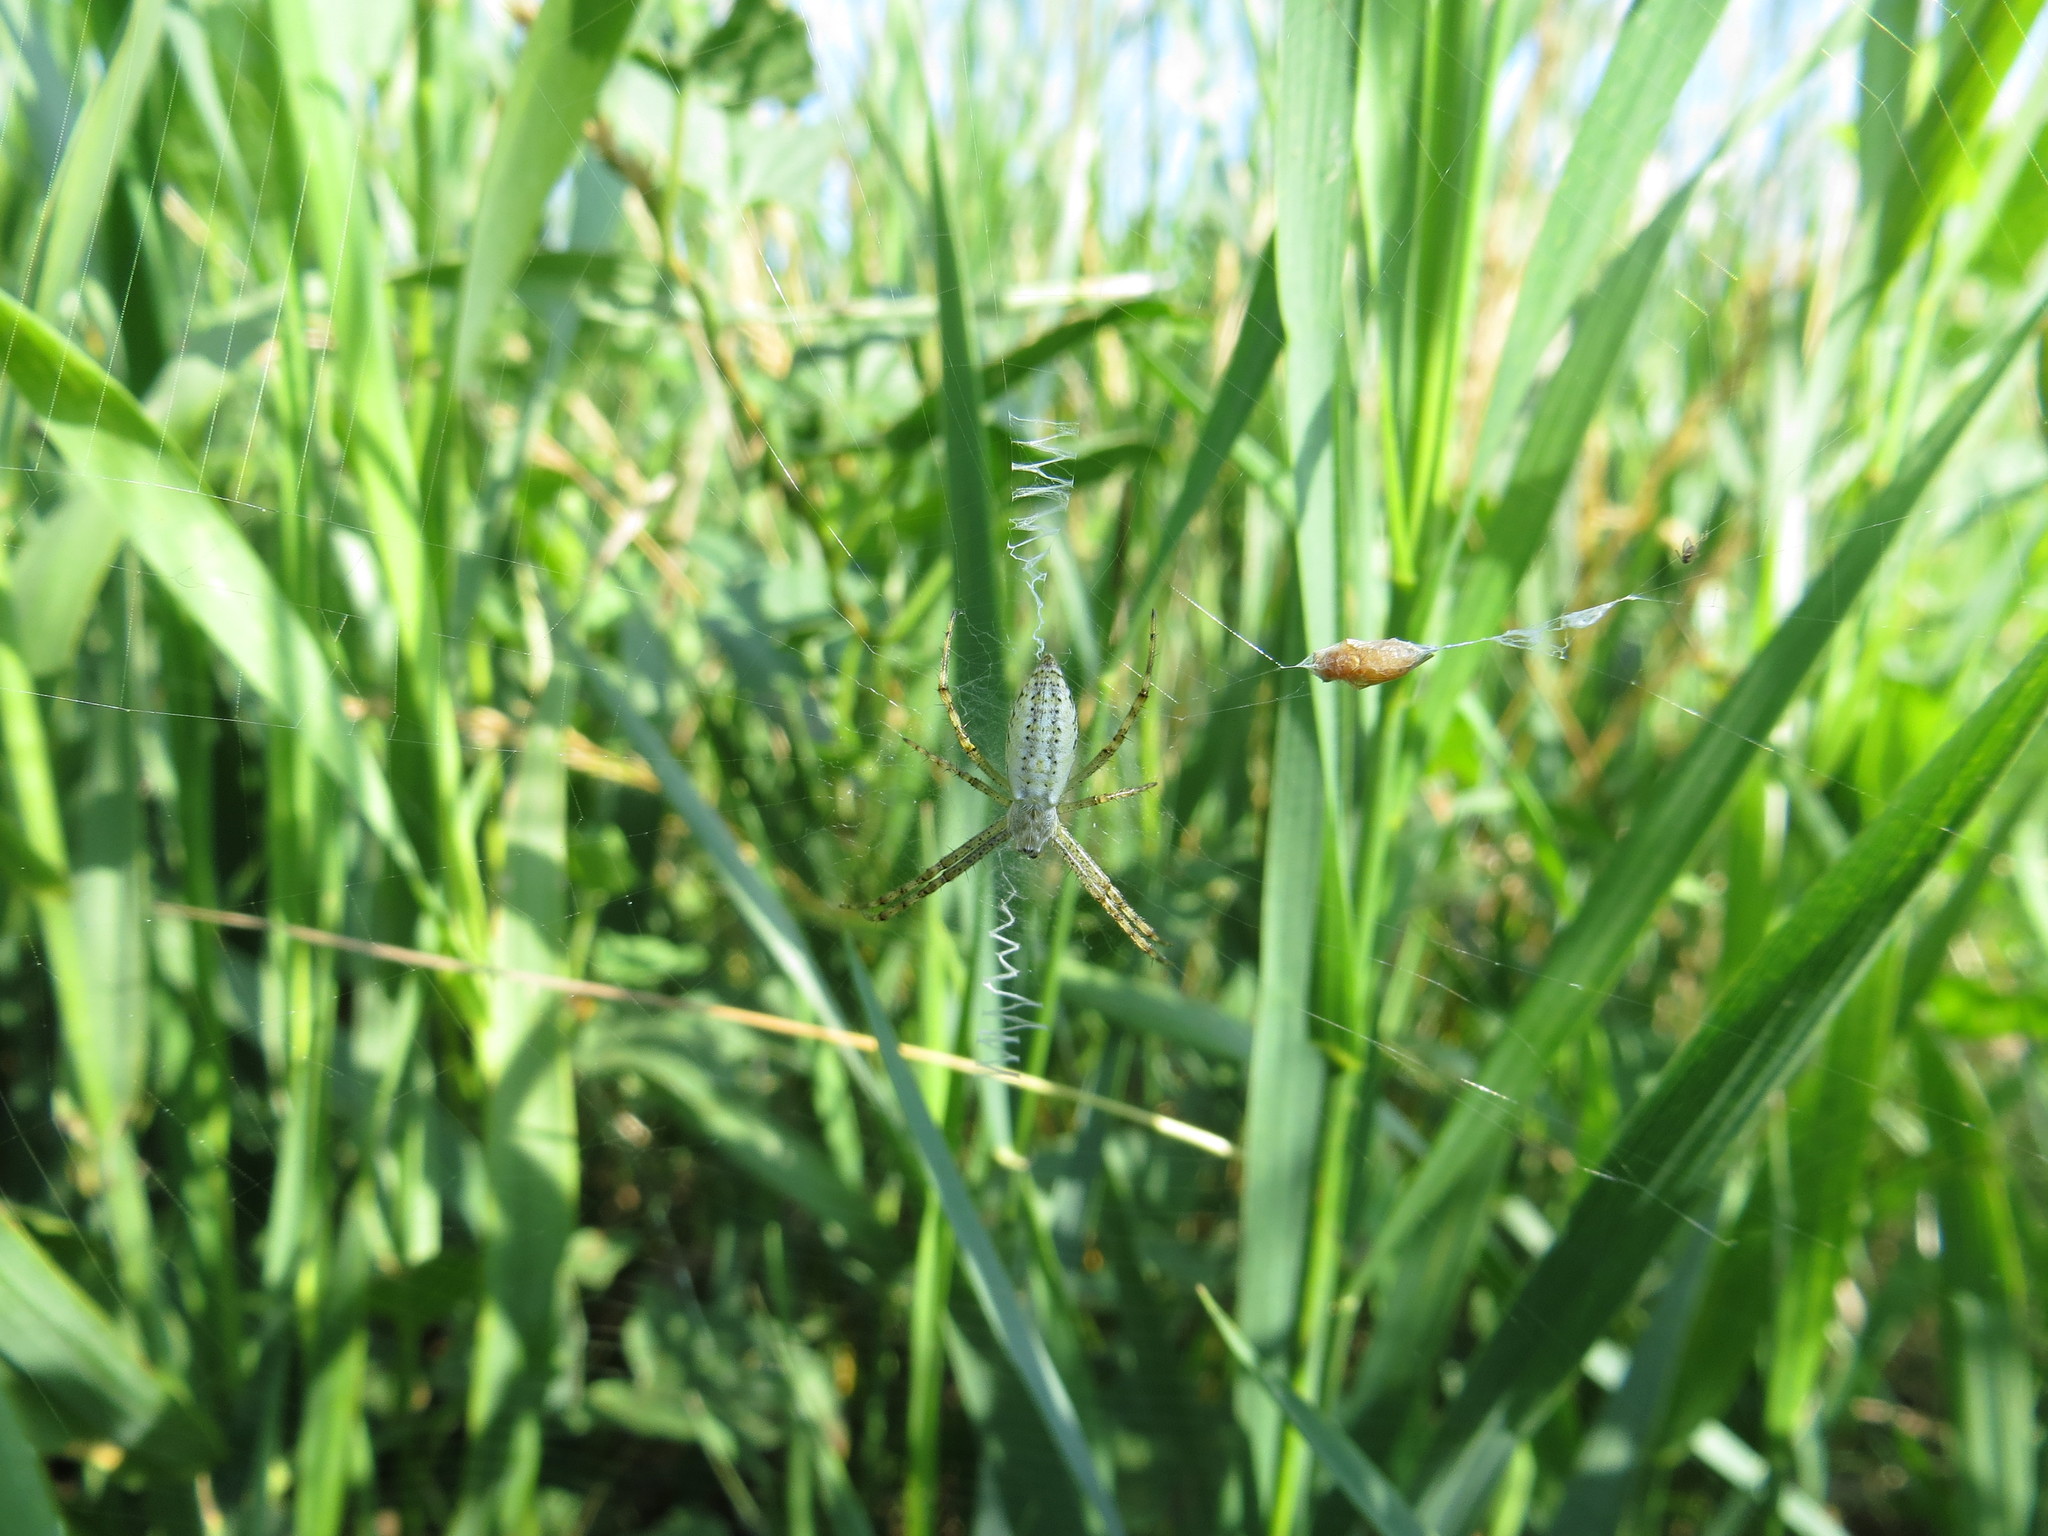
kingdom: Animalia
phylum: Arthropoda
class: Arachnida
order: Araneae
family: Araneidae
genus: Argiope
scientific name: Argiope bruennichi
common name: Wasp spider
